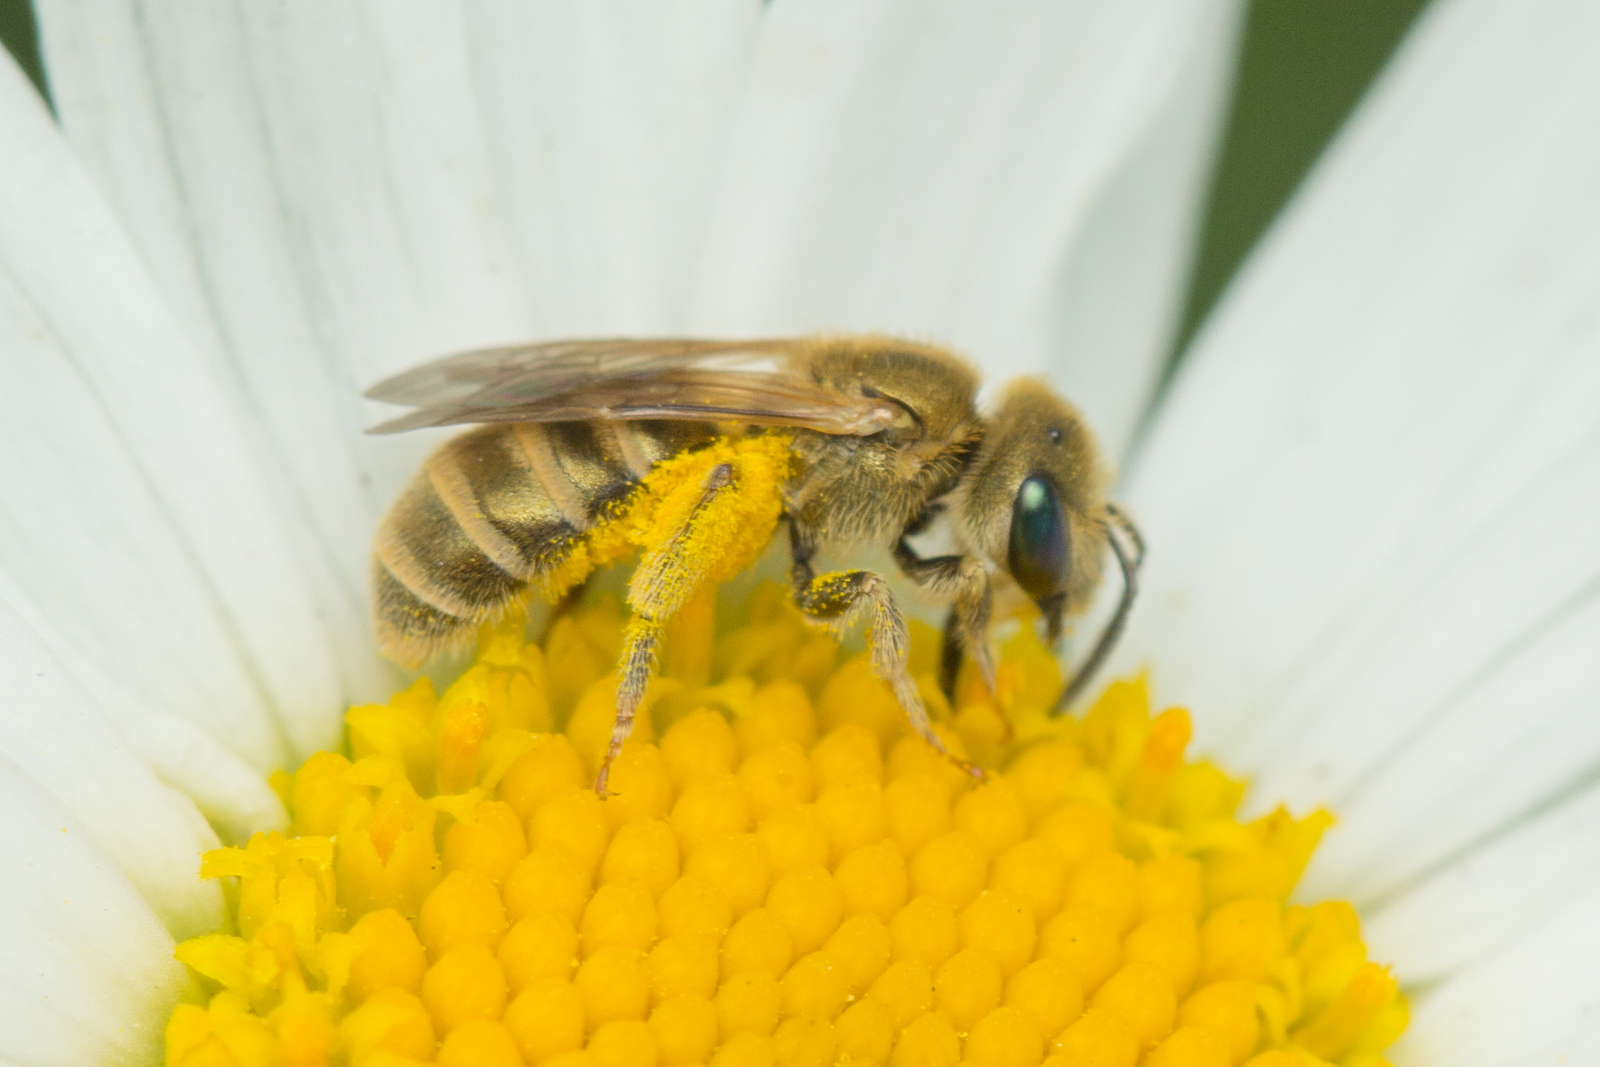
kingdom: Animalia
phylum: Arthropoda
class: Insecta
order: Hymenoptera
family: Halictidae
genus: Halictus
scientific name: Halictus subauratus
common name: Golden furrow bee
